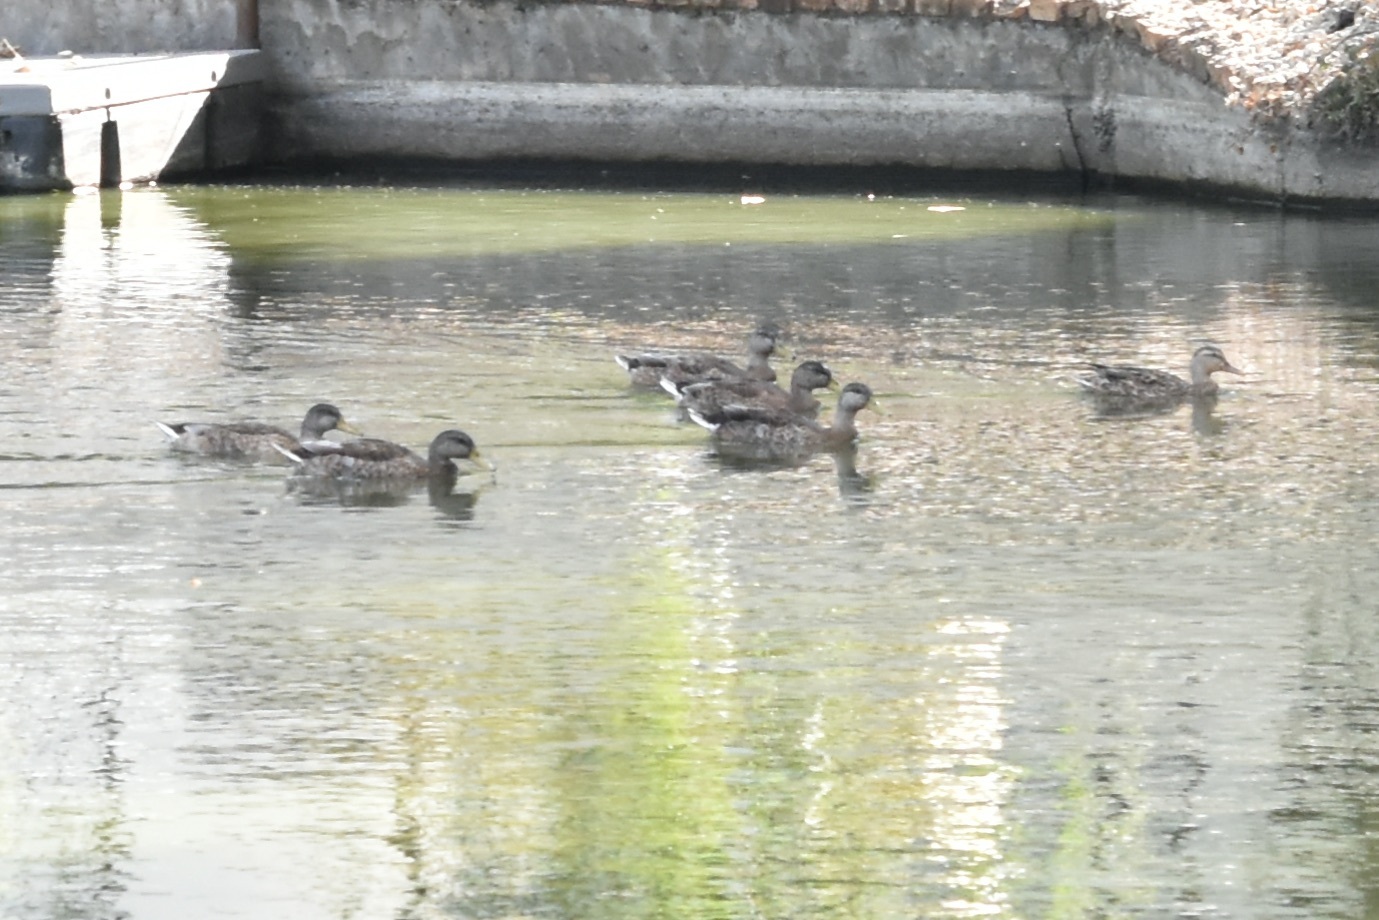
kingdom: Animalia
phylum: Chordata
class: Aves
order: Anseriformes
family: Anatidae
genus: Anas
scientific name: Anas platyrhynchos
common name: Mallard
